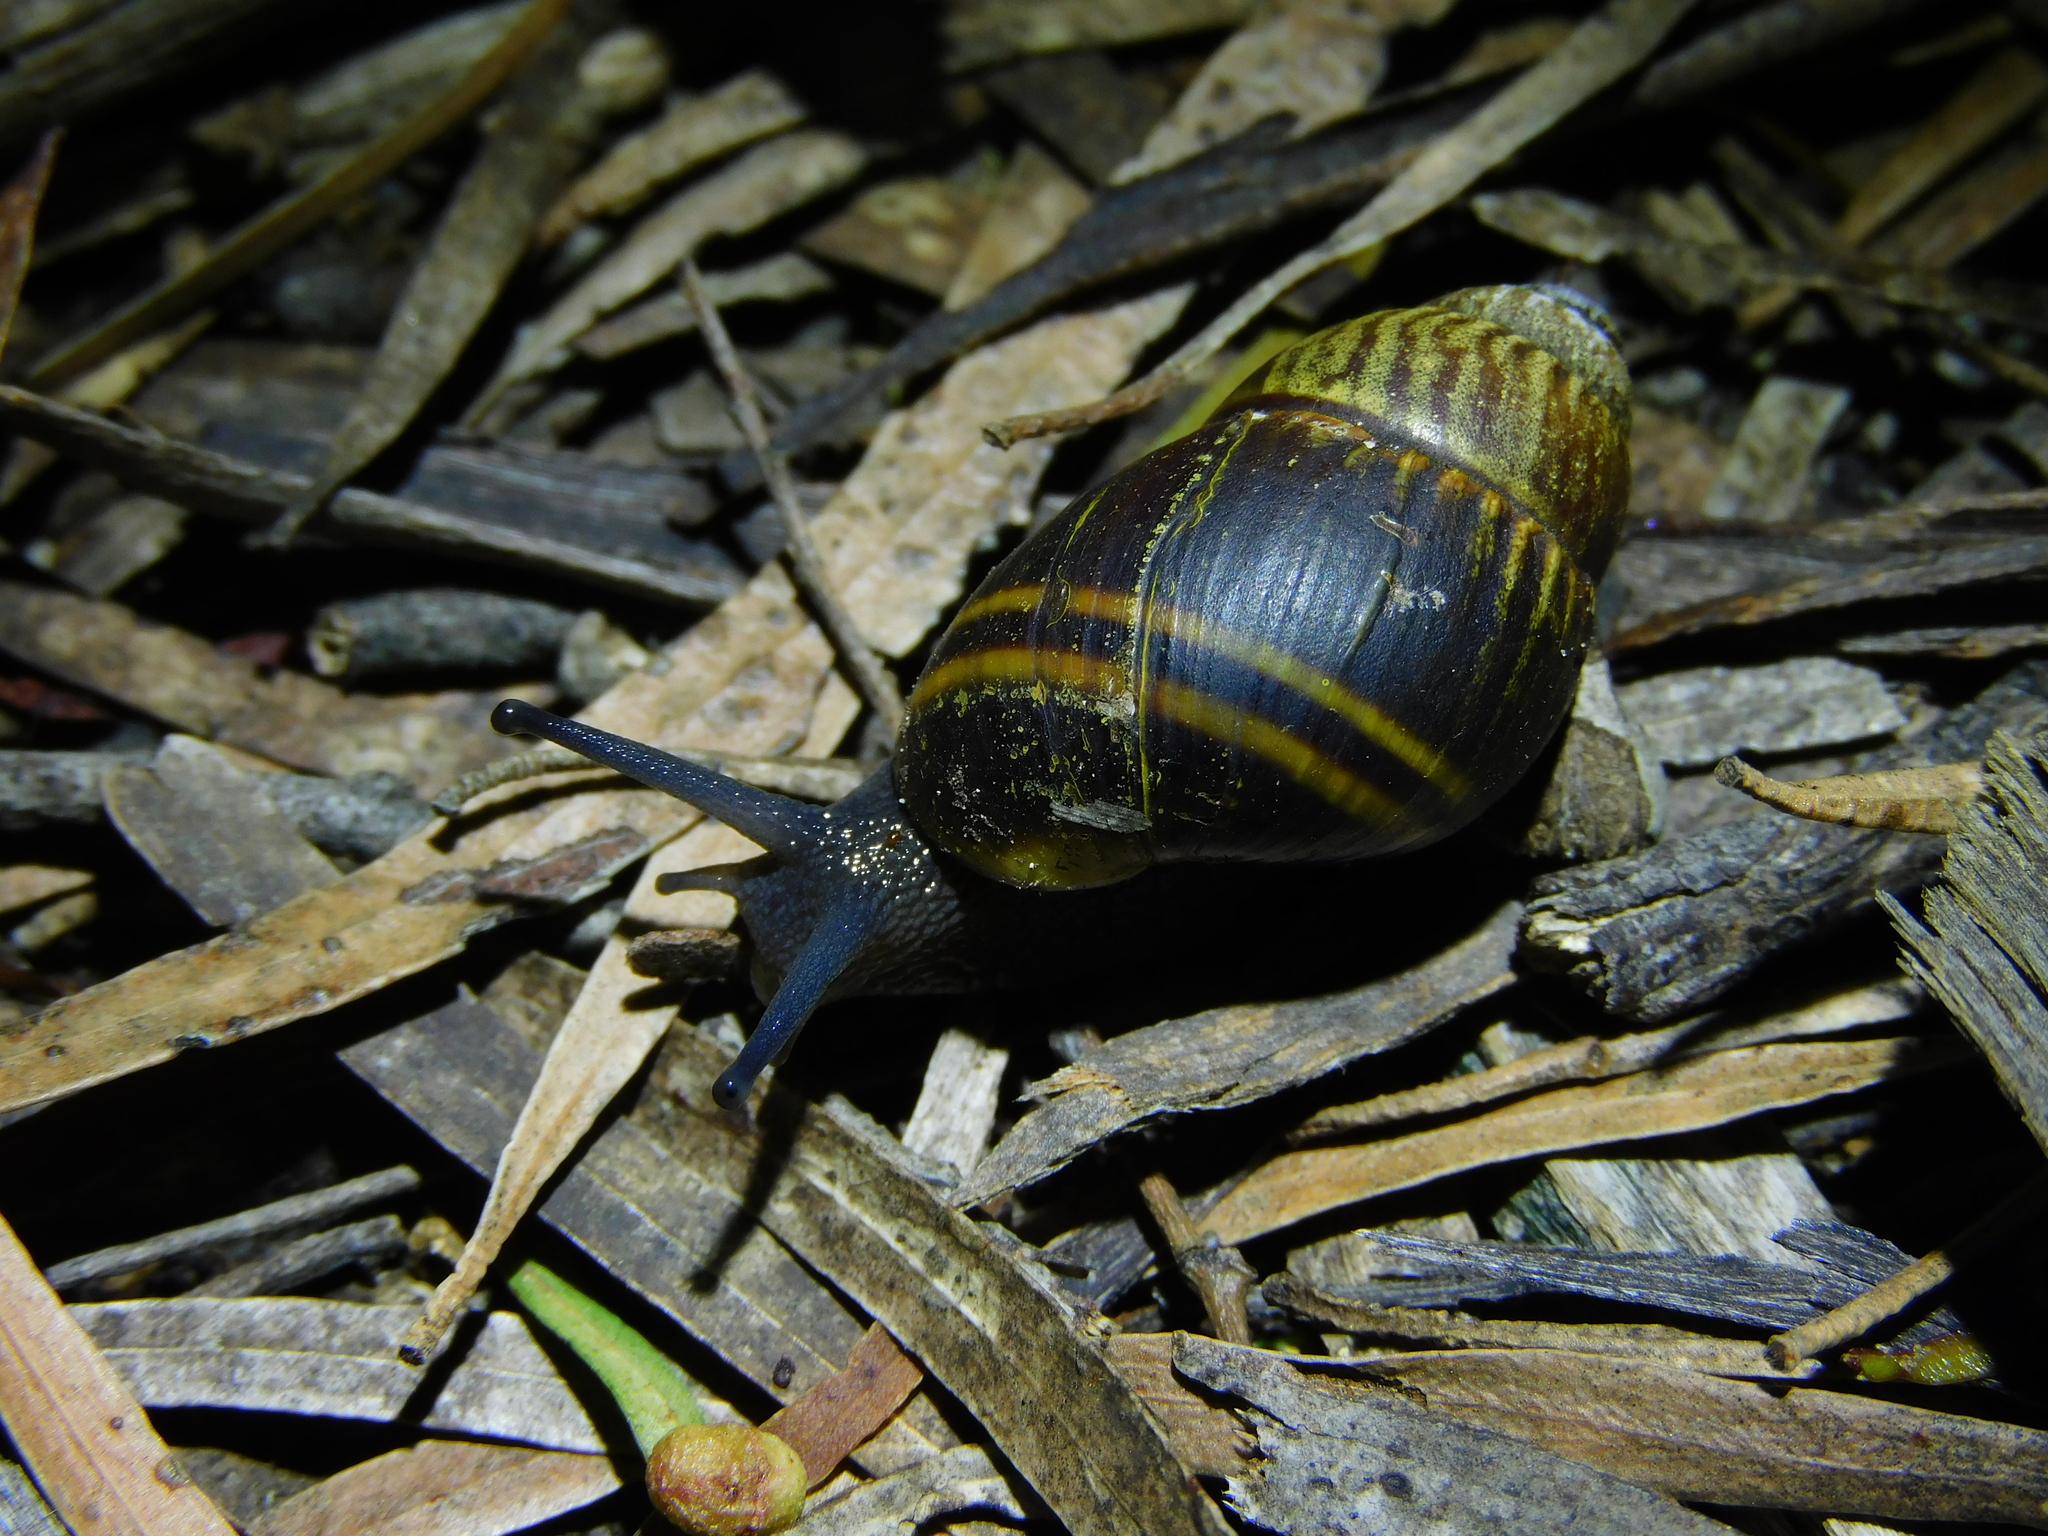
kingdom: Animalia
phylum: Mollusca
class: Gastropoda
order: Stylommatophora
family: Caryodidae
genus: Caryodes
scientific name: Caryodes dufresnii
